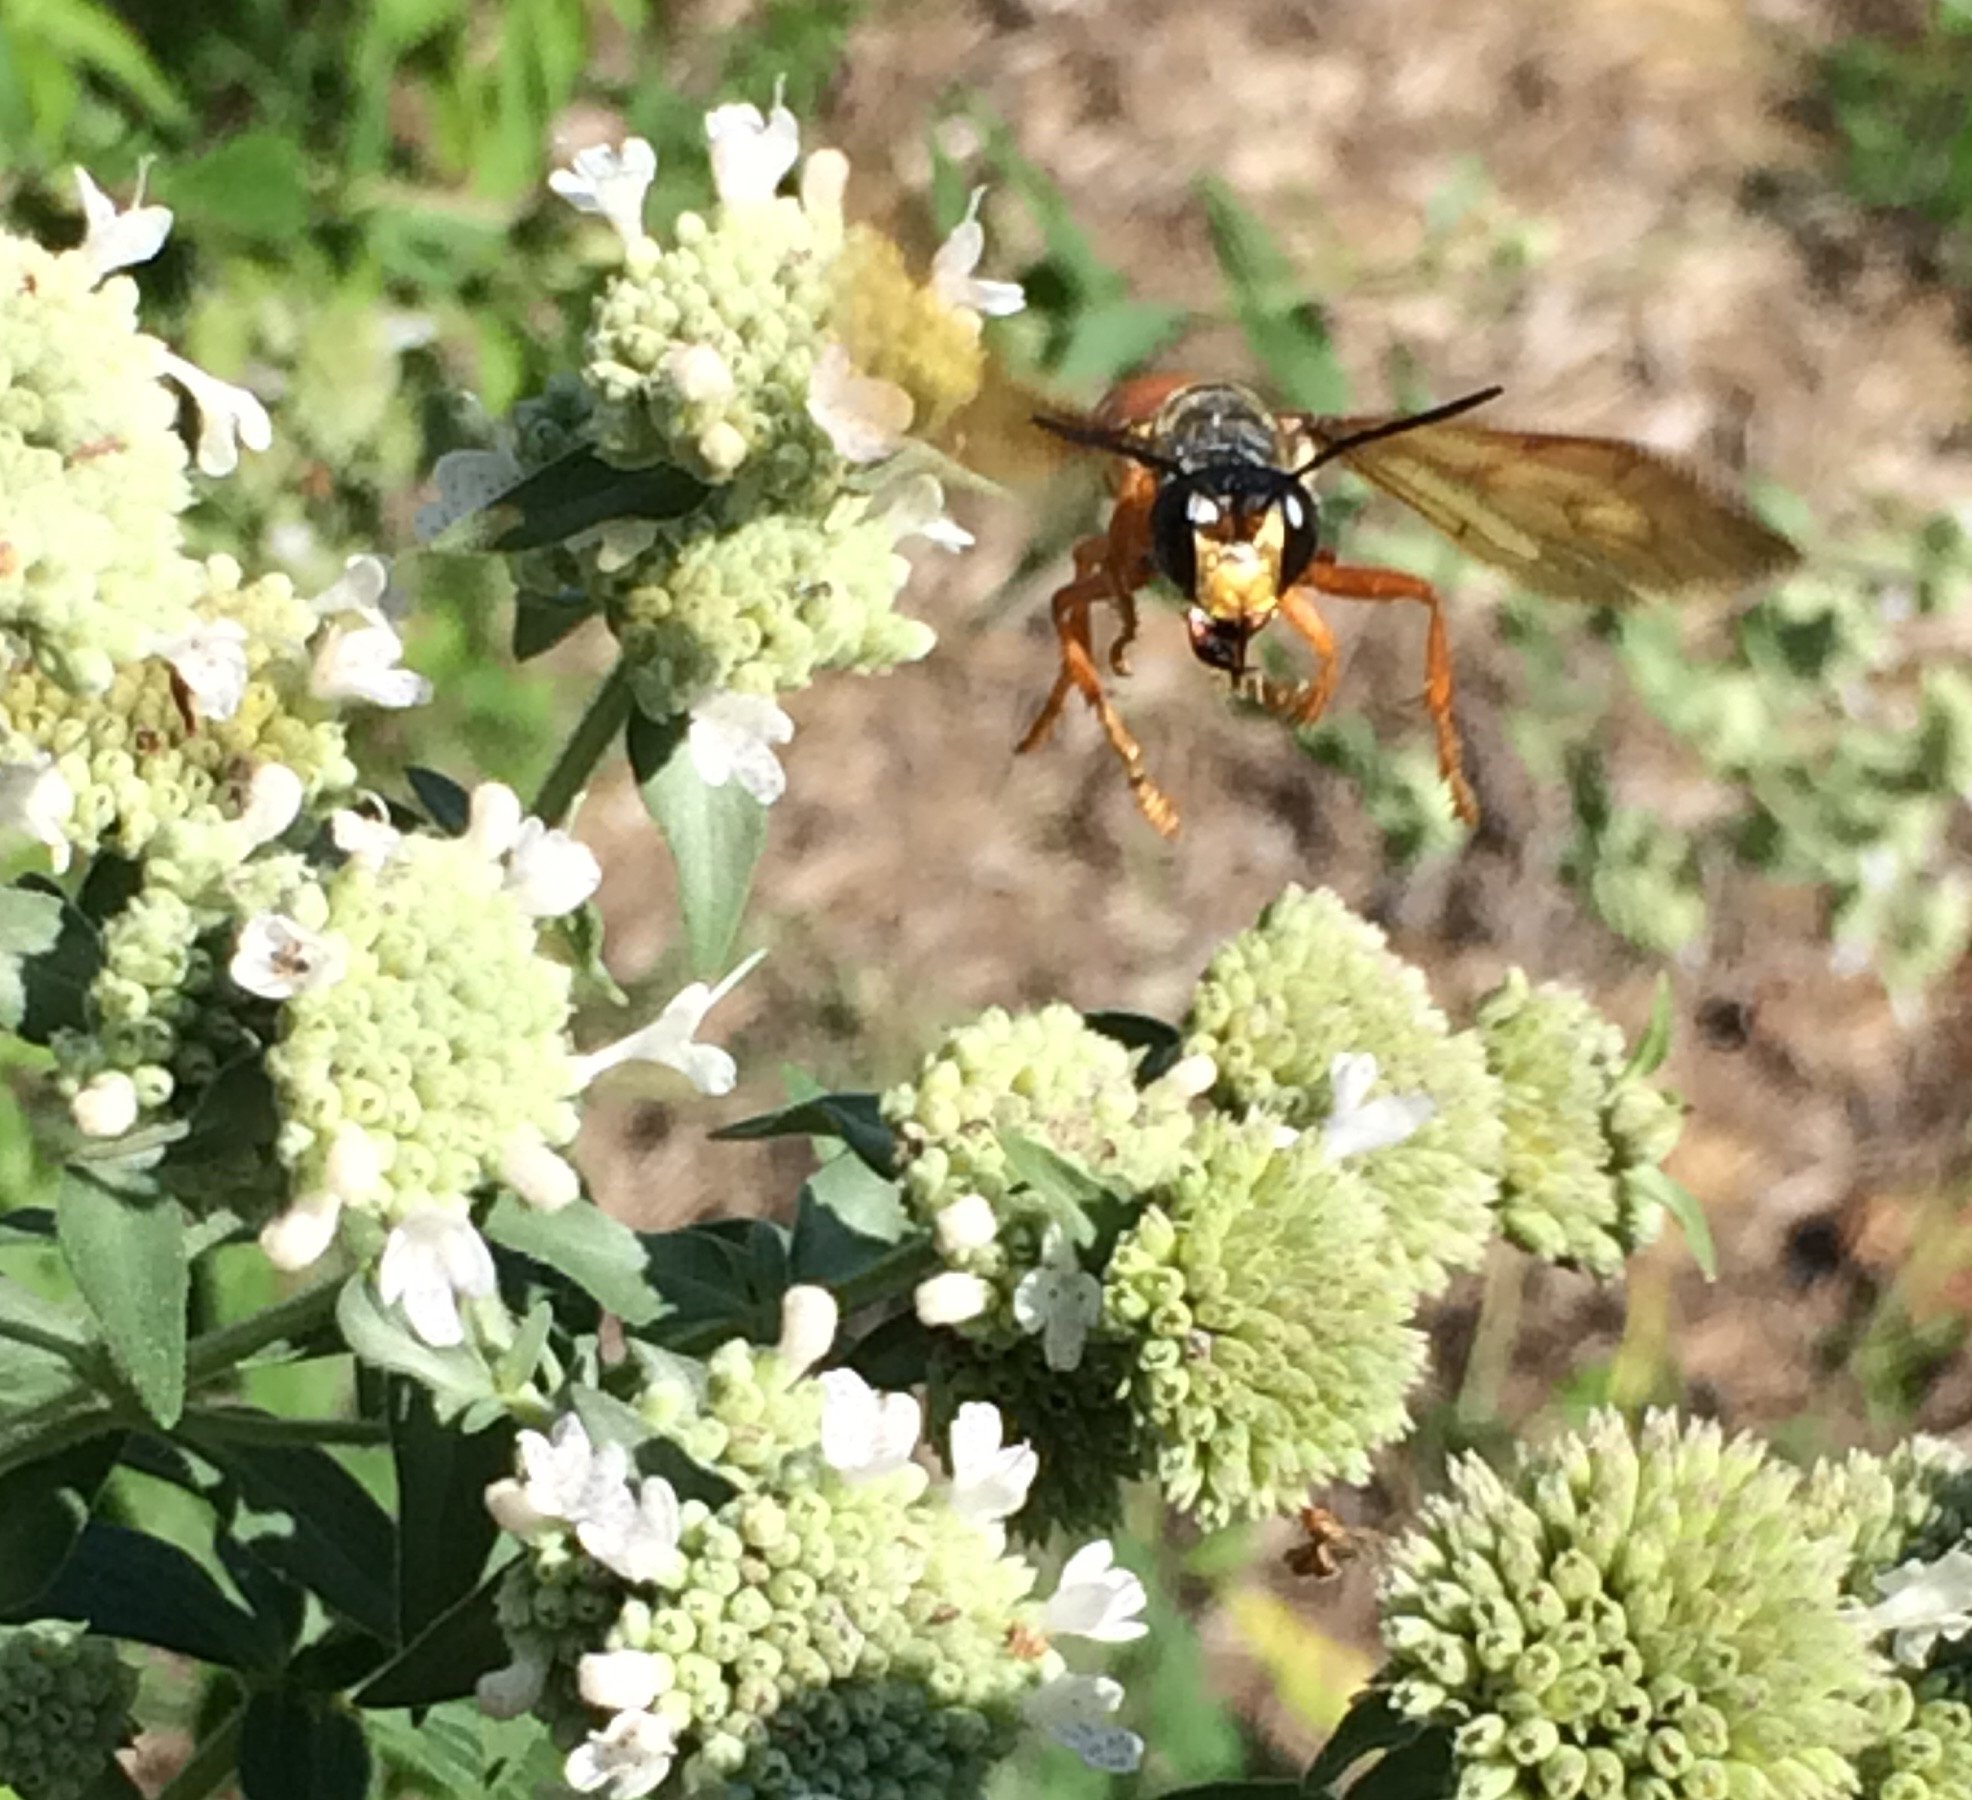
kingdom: Animalia
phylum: Arthropoda
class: Insecta
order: Hymenoptera
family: Sphecidae
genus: Sphex
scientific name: Sphex ichneumoneus
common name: Great golden digger wasp
